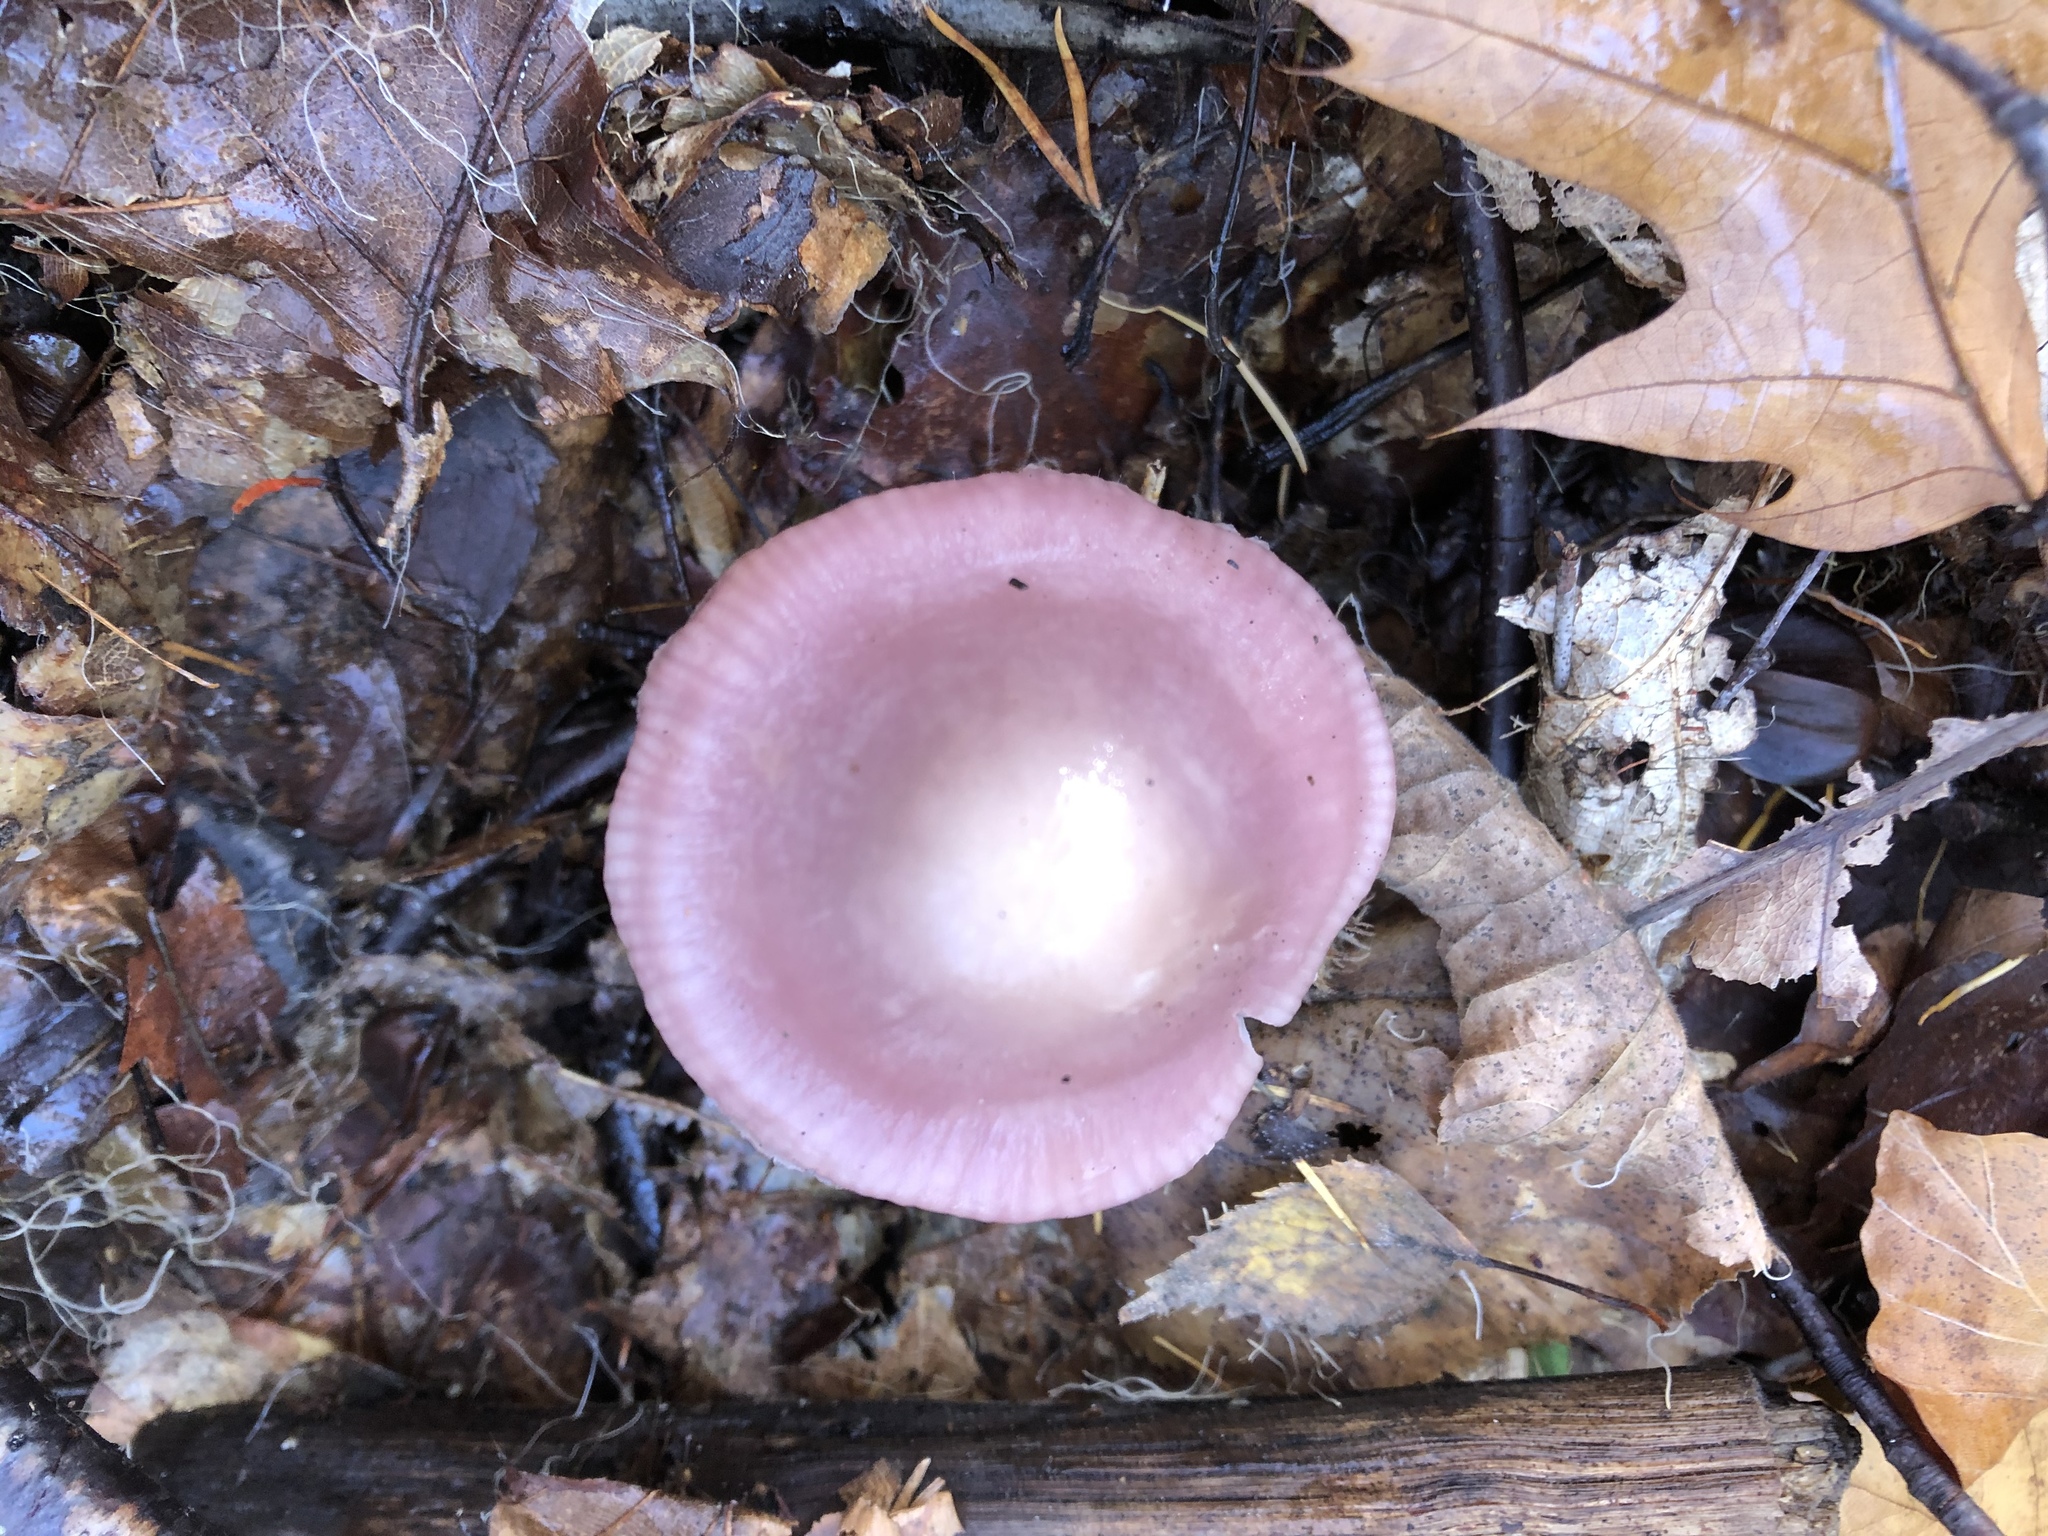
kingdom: Fungi
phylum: Basidiomycota
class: Agaricomycetes
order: Agaricales
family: Mycenaceae
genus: Mycena
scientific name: Mycena rosea
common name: Rosy bonnet
